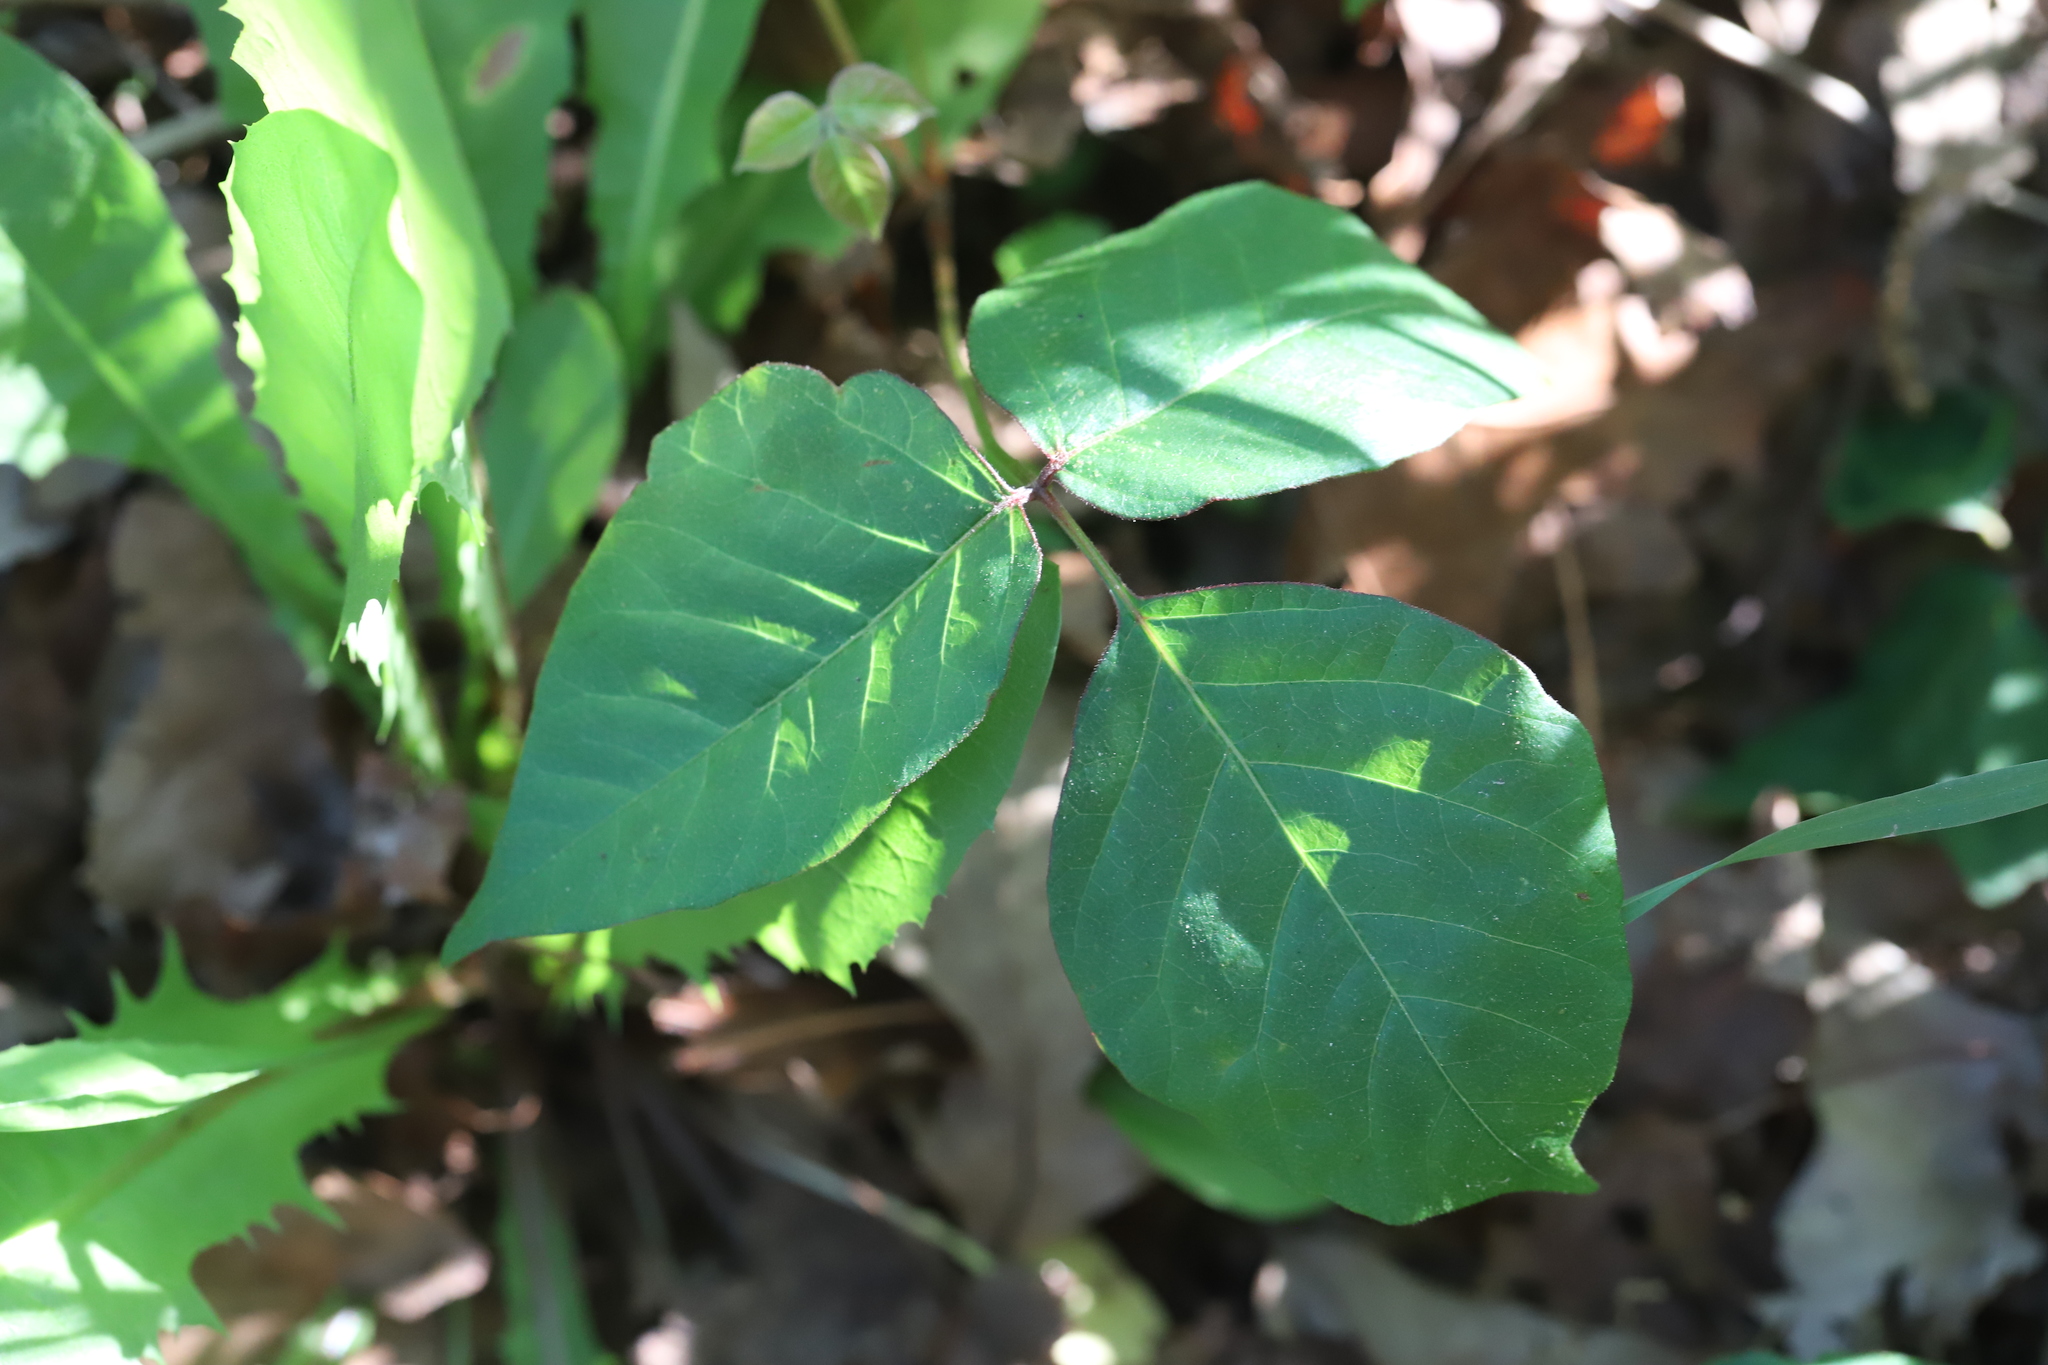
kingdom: Plantae
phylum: Tracheophyta
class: Magnoliopsida
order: Sapindales
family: Anacardiaceae
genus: Toxicodendron
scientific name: Toxicodendron radicans
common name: Poison ivy
